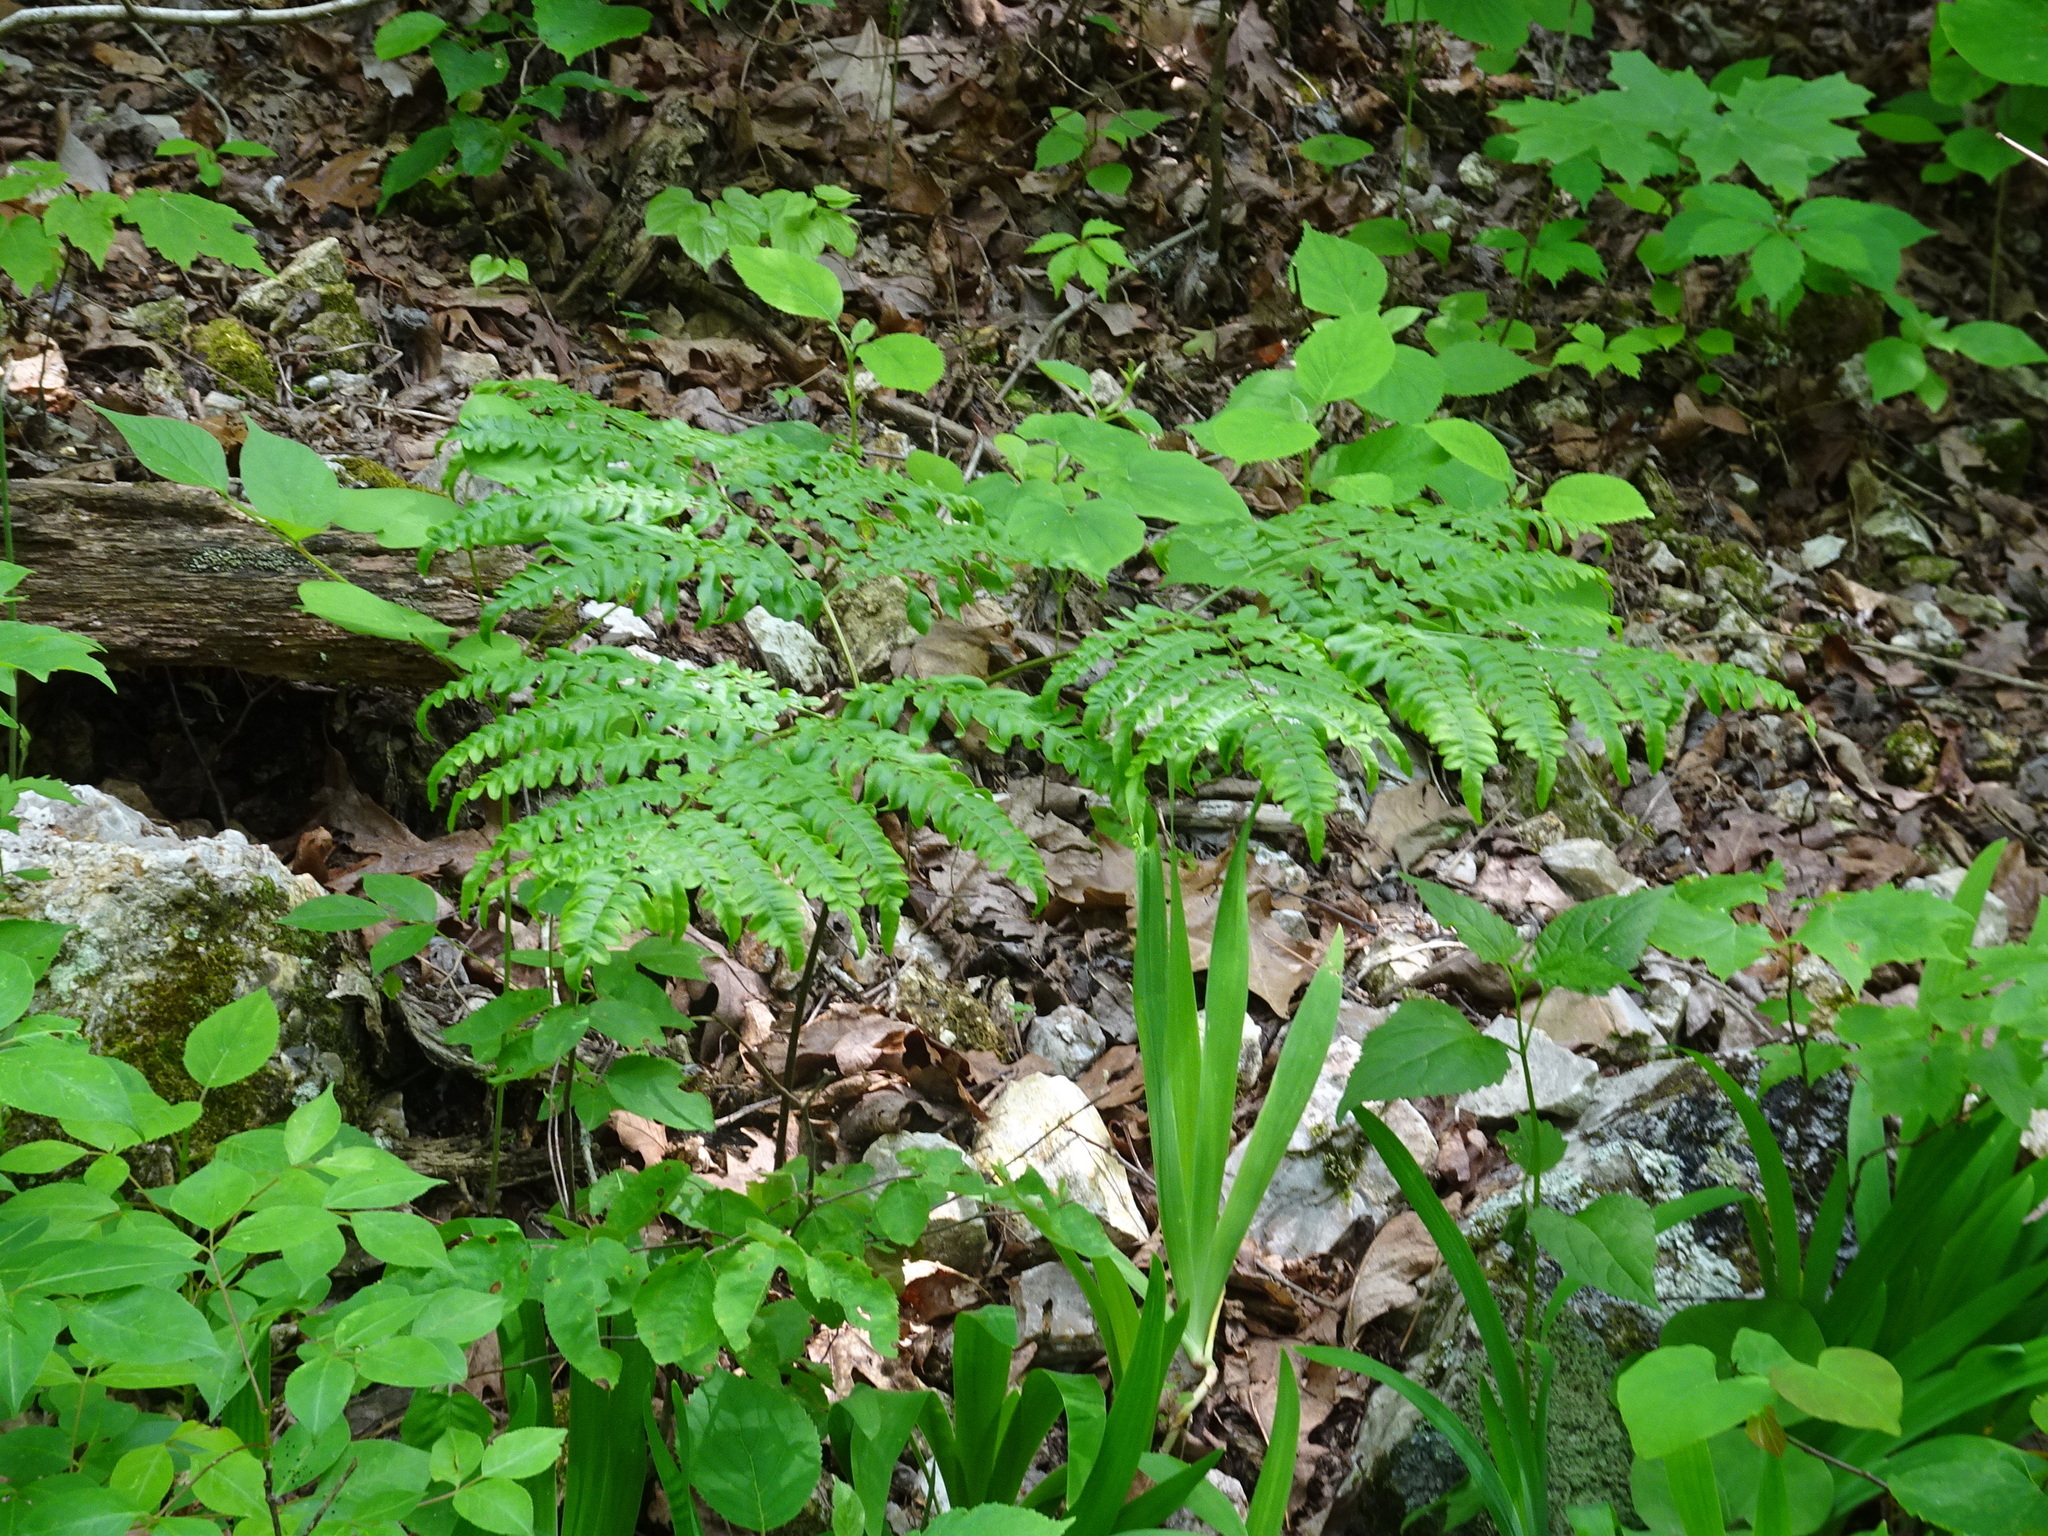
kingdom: Plantae
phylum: Tracheophyta
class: Polypodiopsida
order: Polypodiales
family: Dennstaedtiaceae
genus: Pteridium
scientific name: Pteridium aquilinum
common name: Bracken
